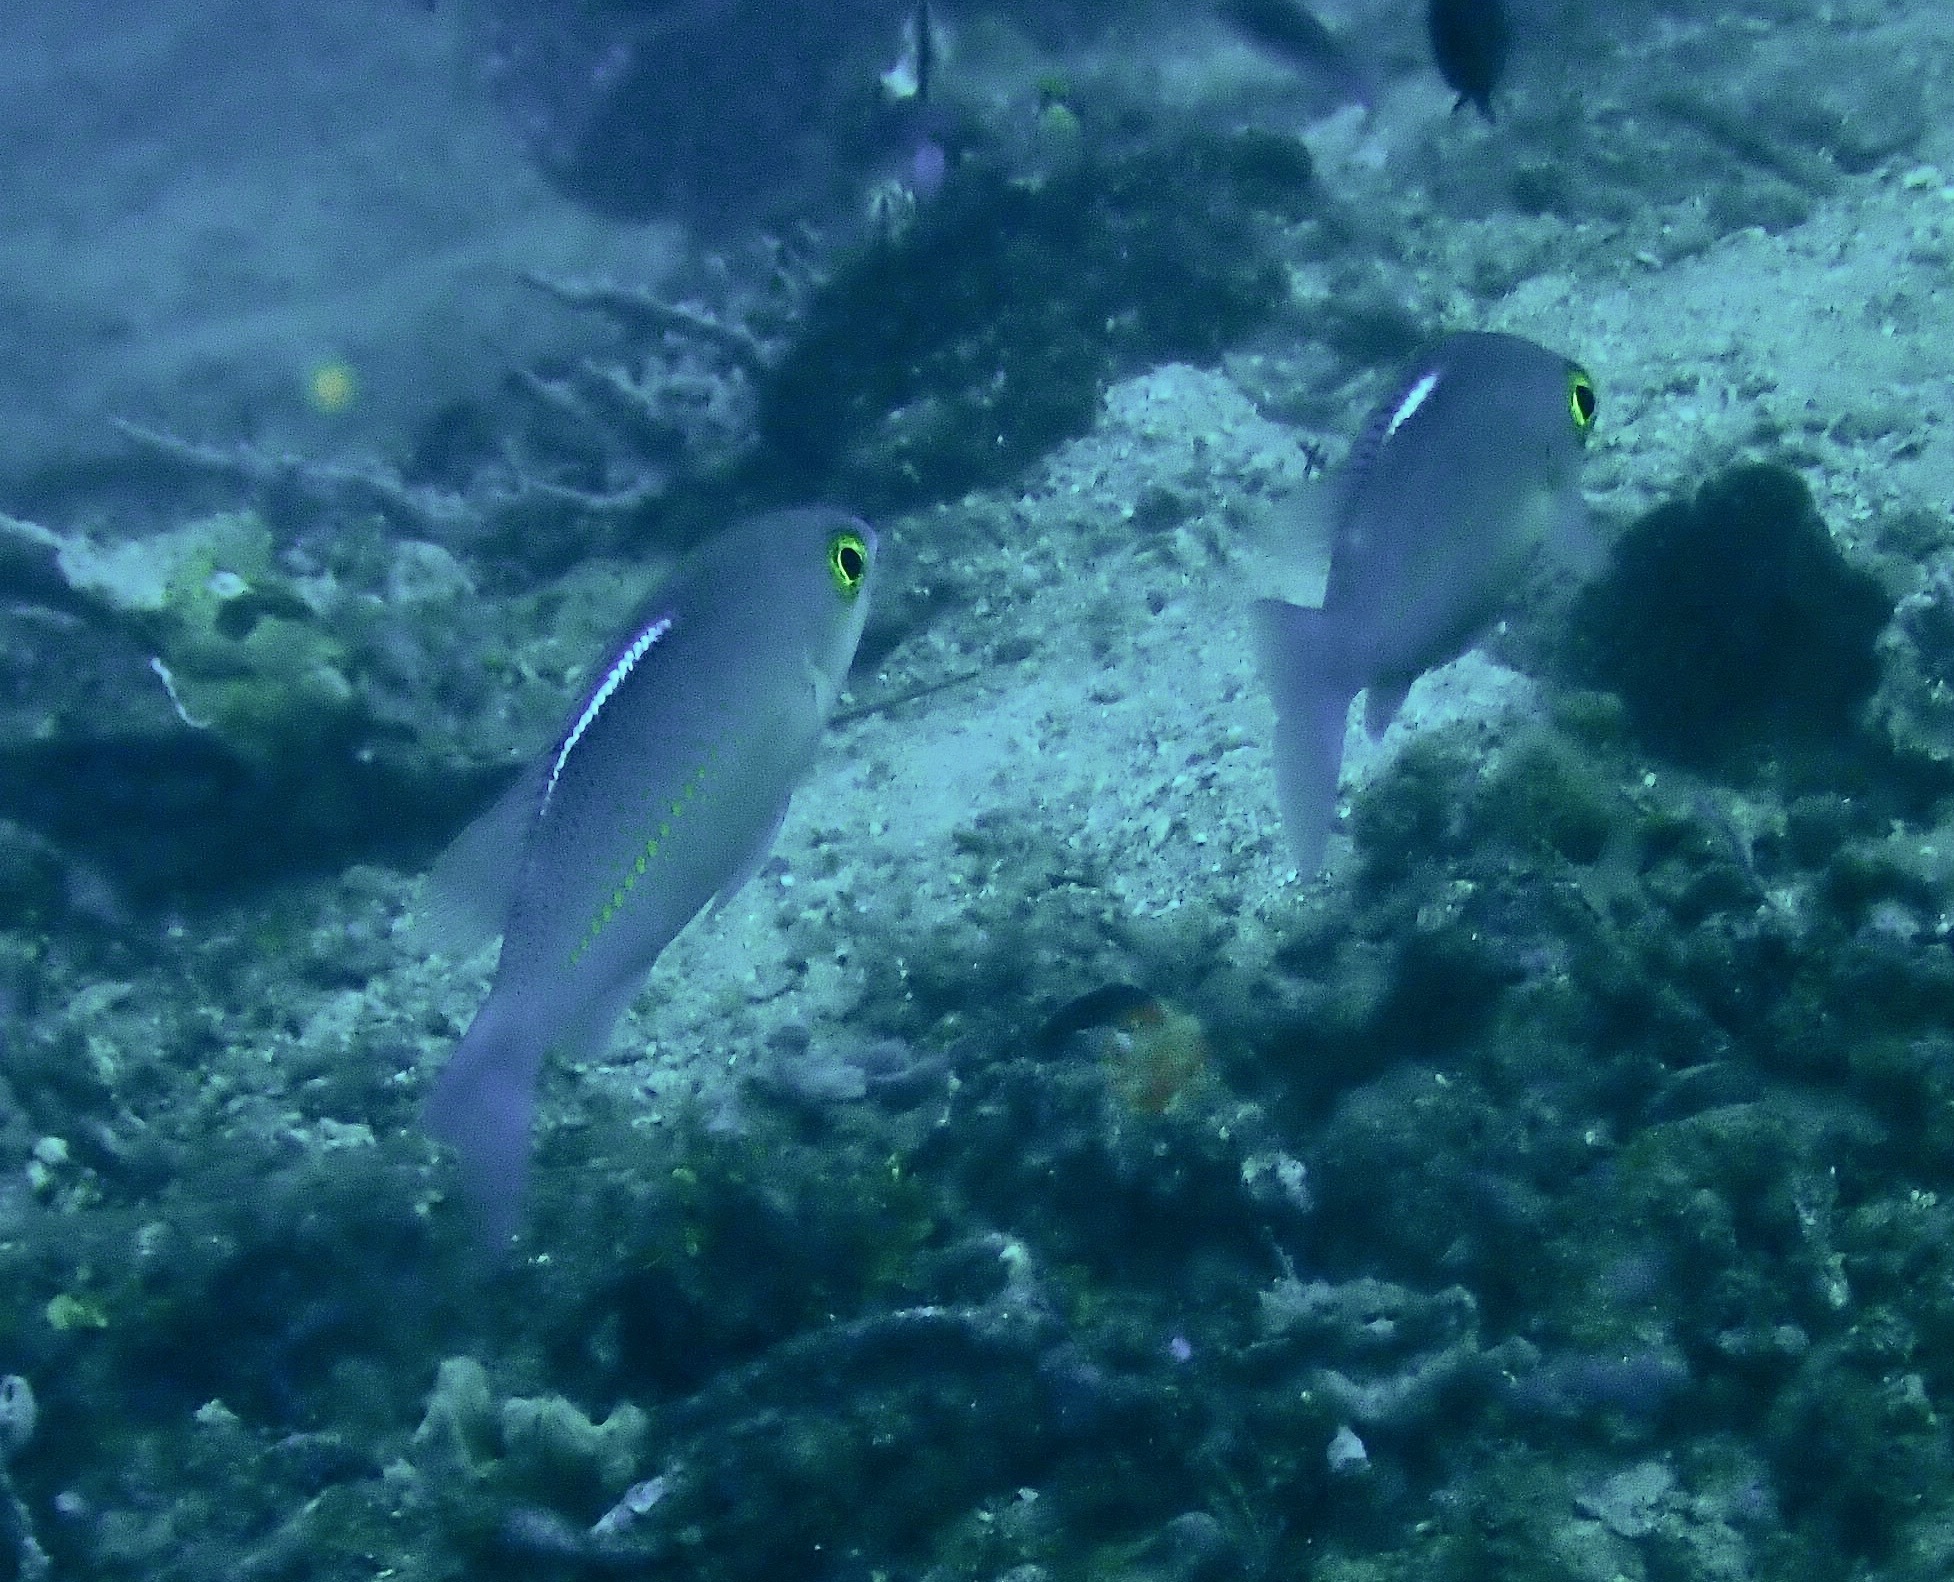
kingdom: Animalia
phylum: Chordata
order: Perciformes
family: Nemipteridae
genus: Scolopsis
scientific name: Scolopsis ciliata
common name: Ciliate spinecheek
